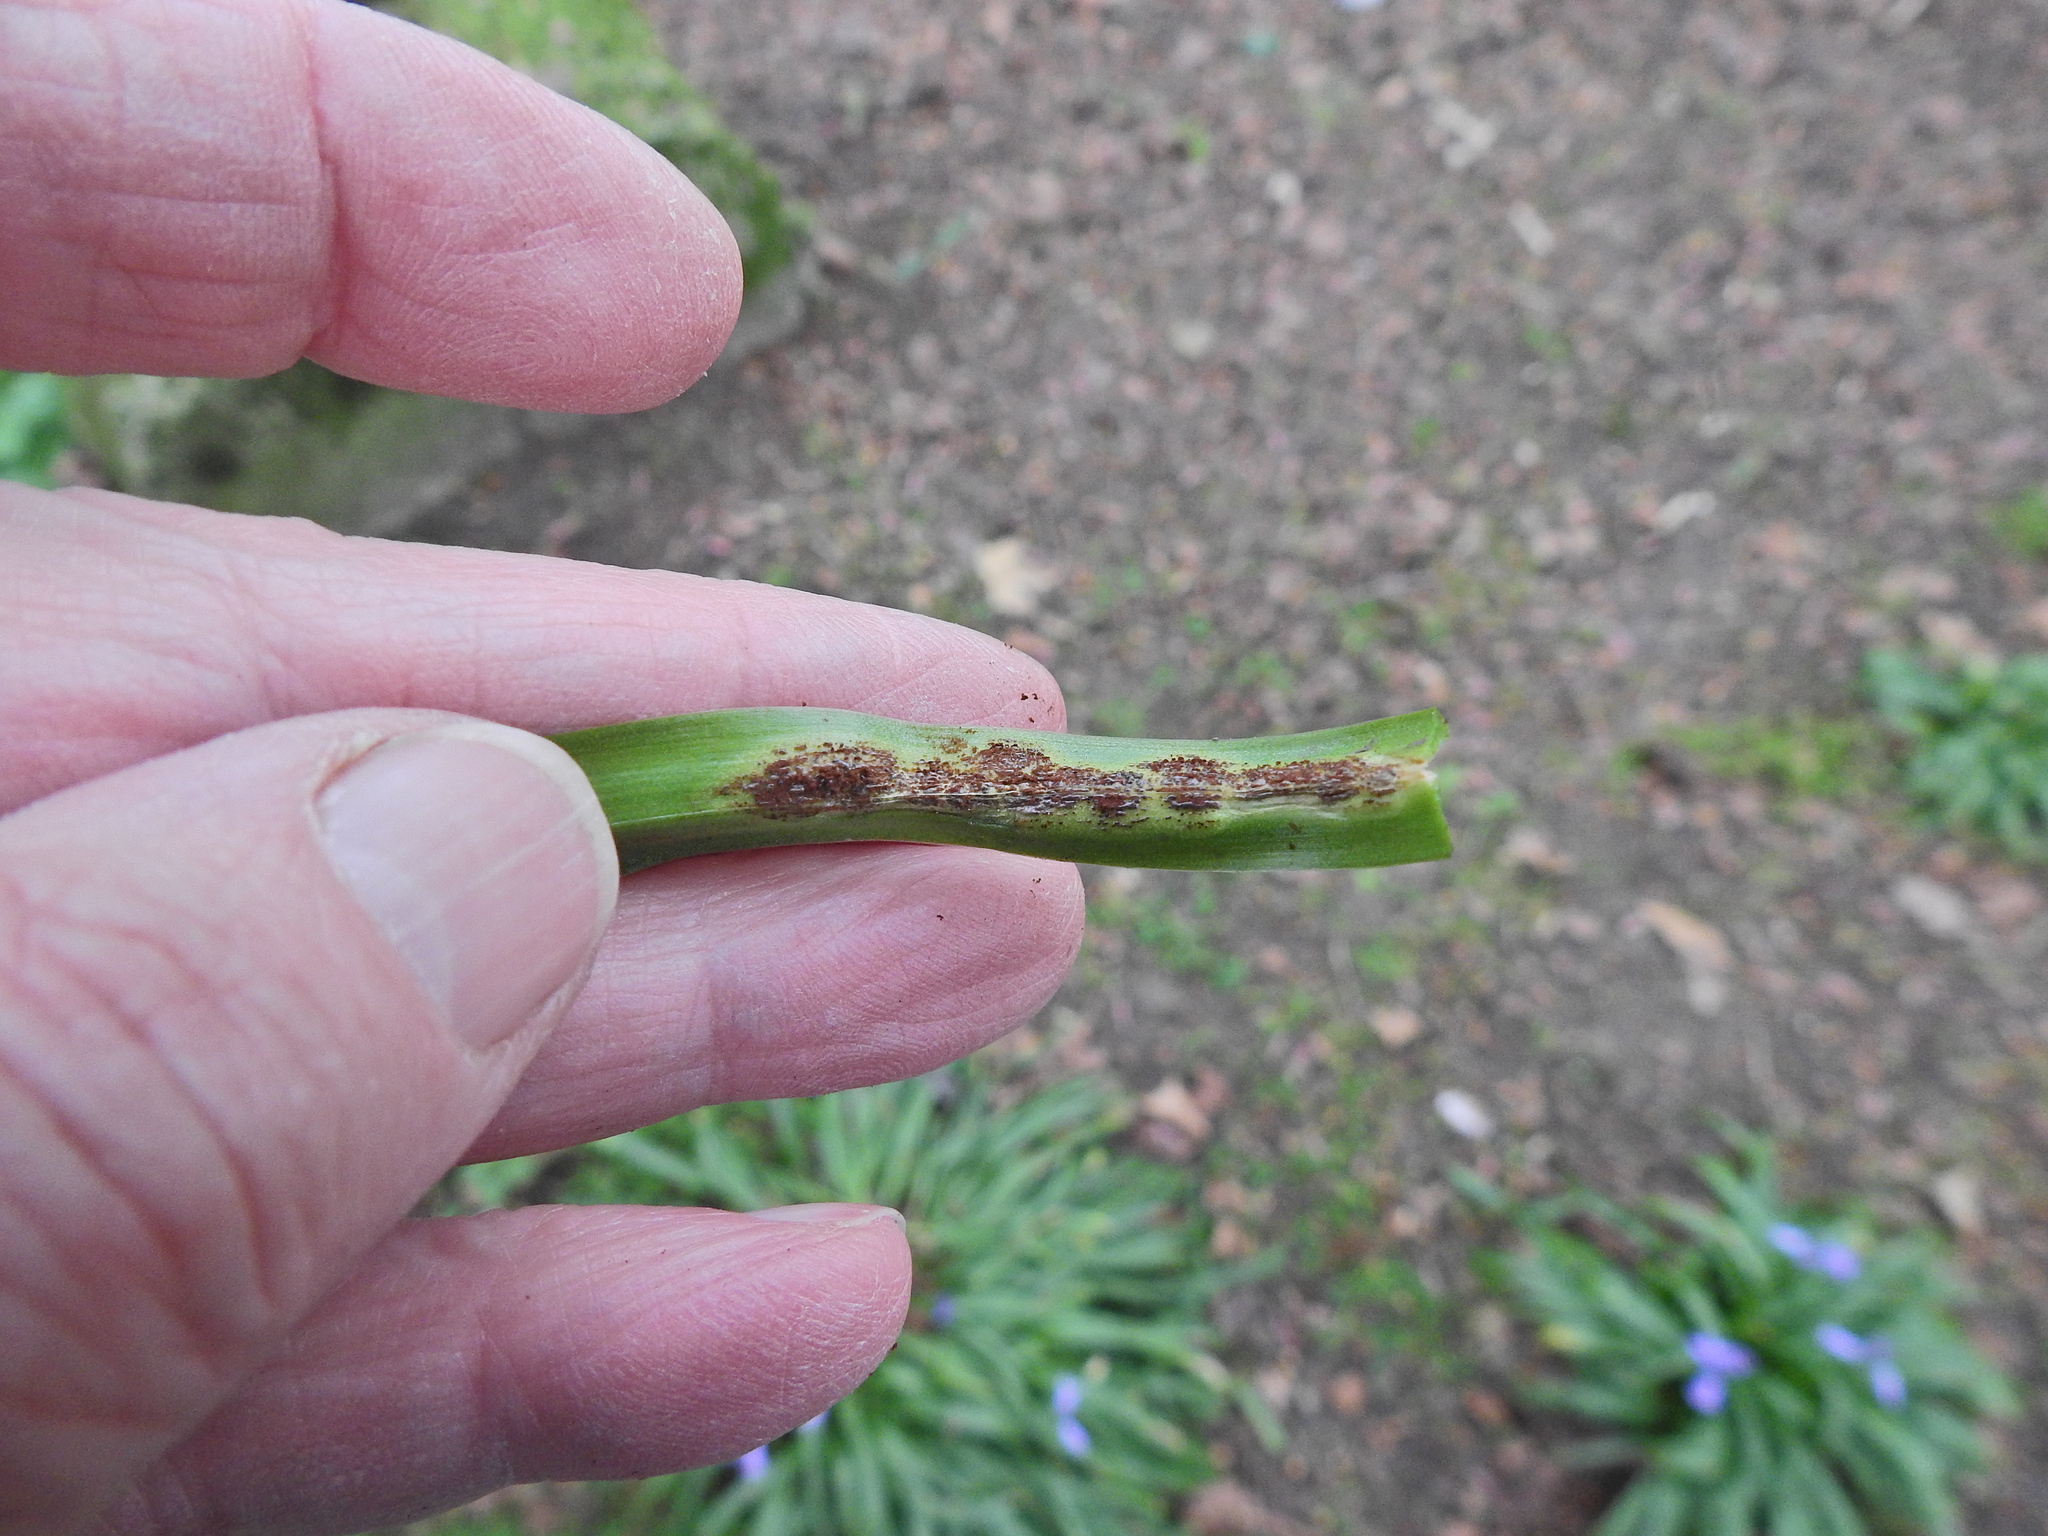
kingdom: Fungi
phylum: Basidiomycota
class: Pucciniomycetes
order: Pucciniales
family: Pucciniaceae
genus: Uromyces
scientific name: Uromyces hyacinthi
